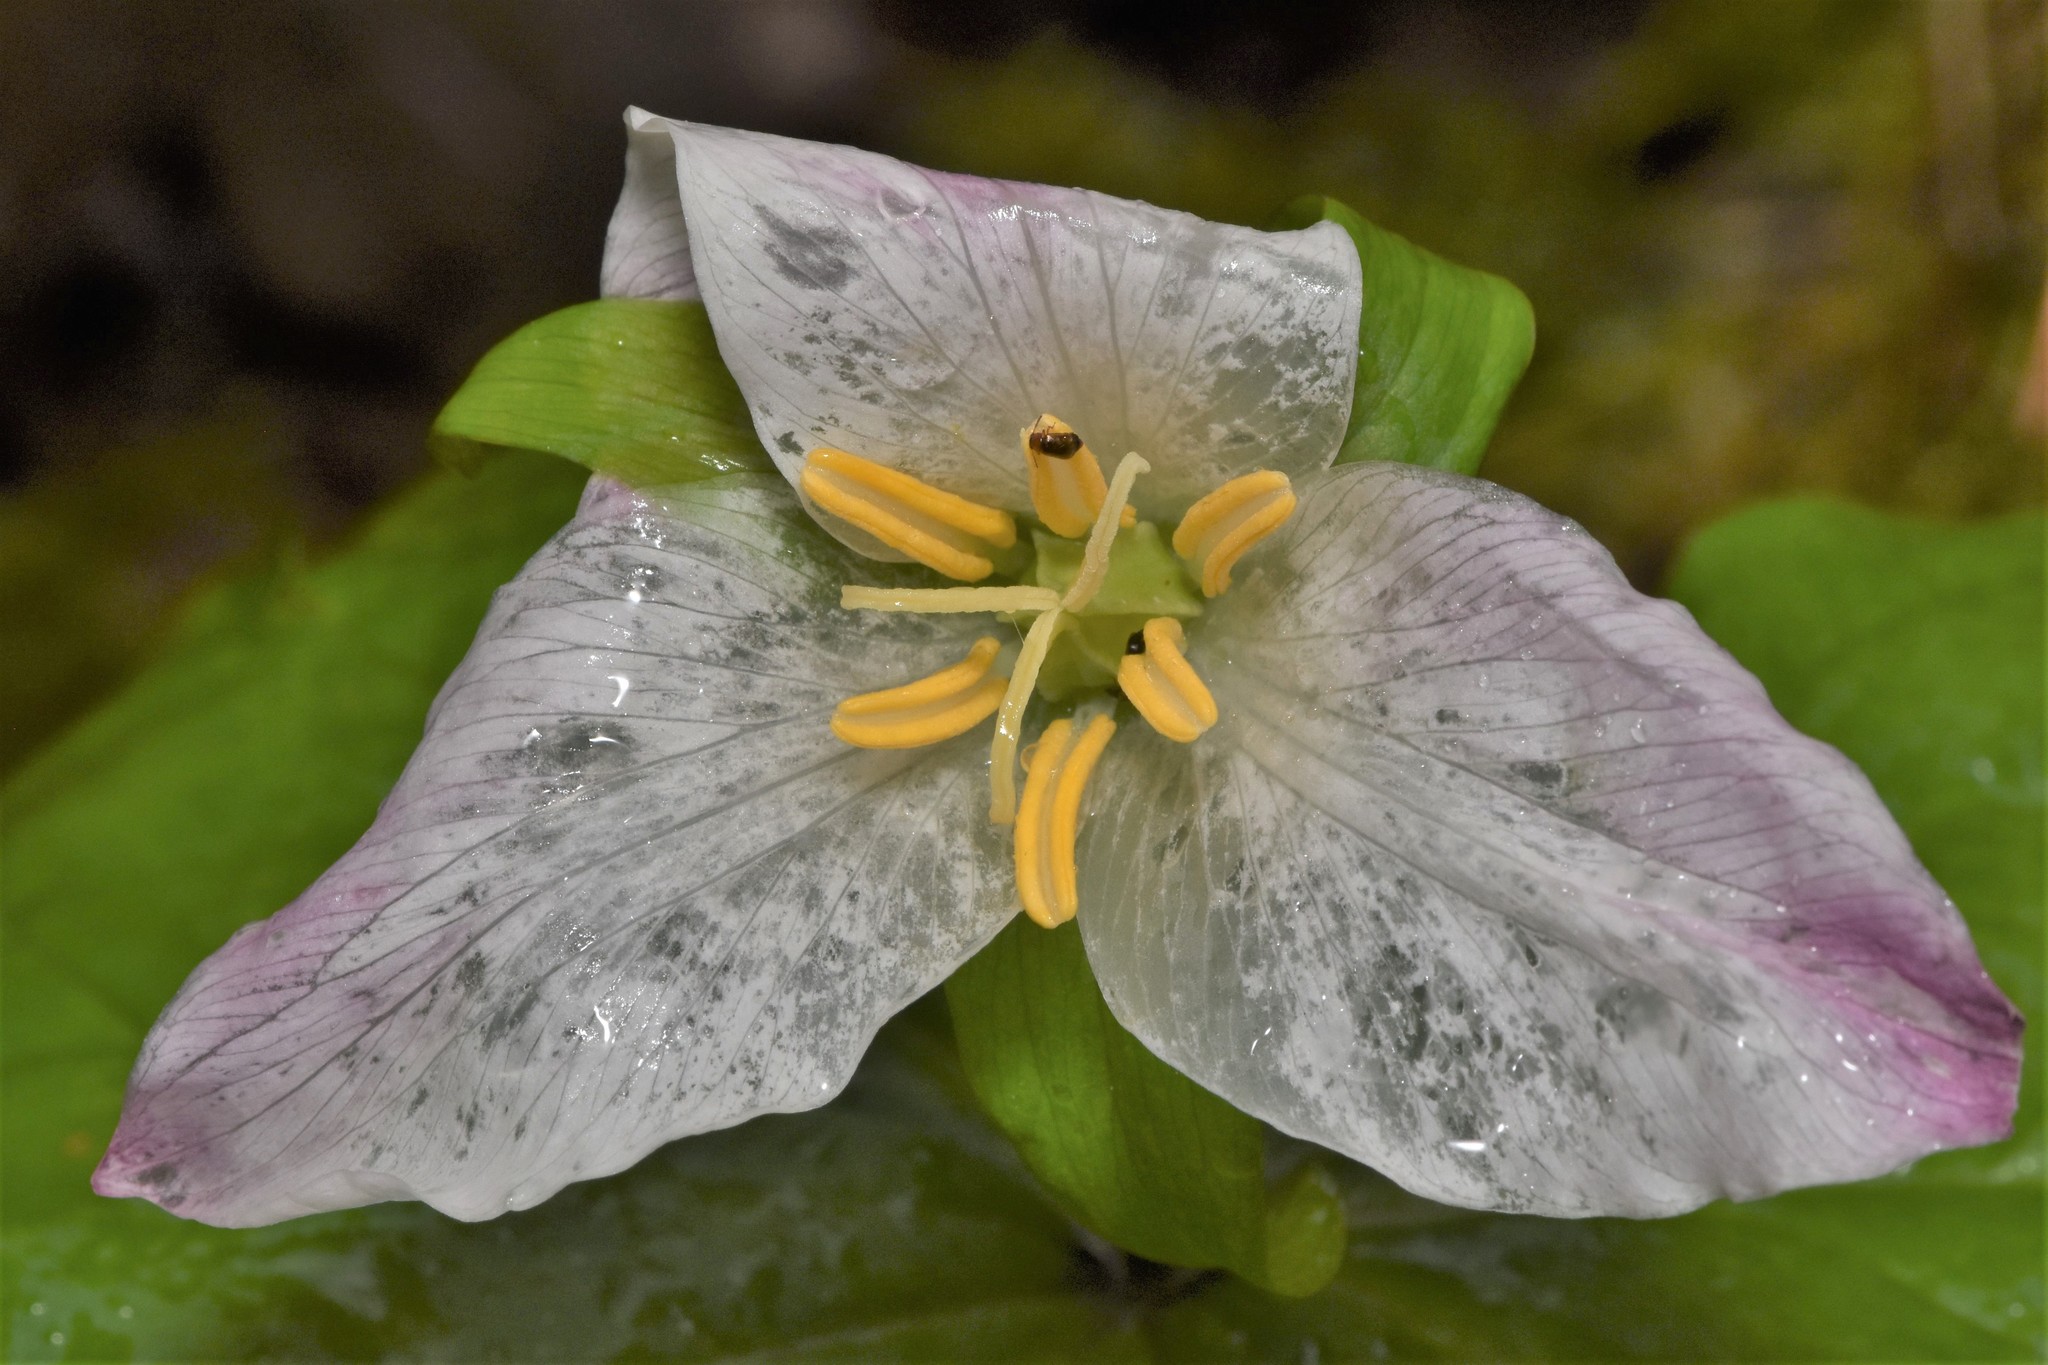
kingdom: Plantae
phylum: Tracheophyta
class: Liliopsida
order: Liliales
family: Melanthiaceae
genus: Trillium
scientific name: Trillium ovatum
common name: Pacific trillium
